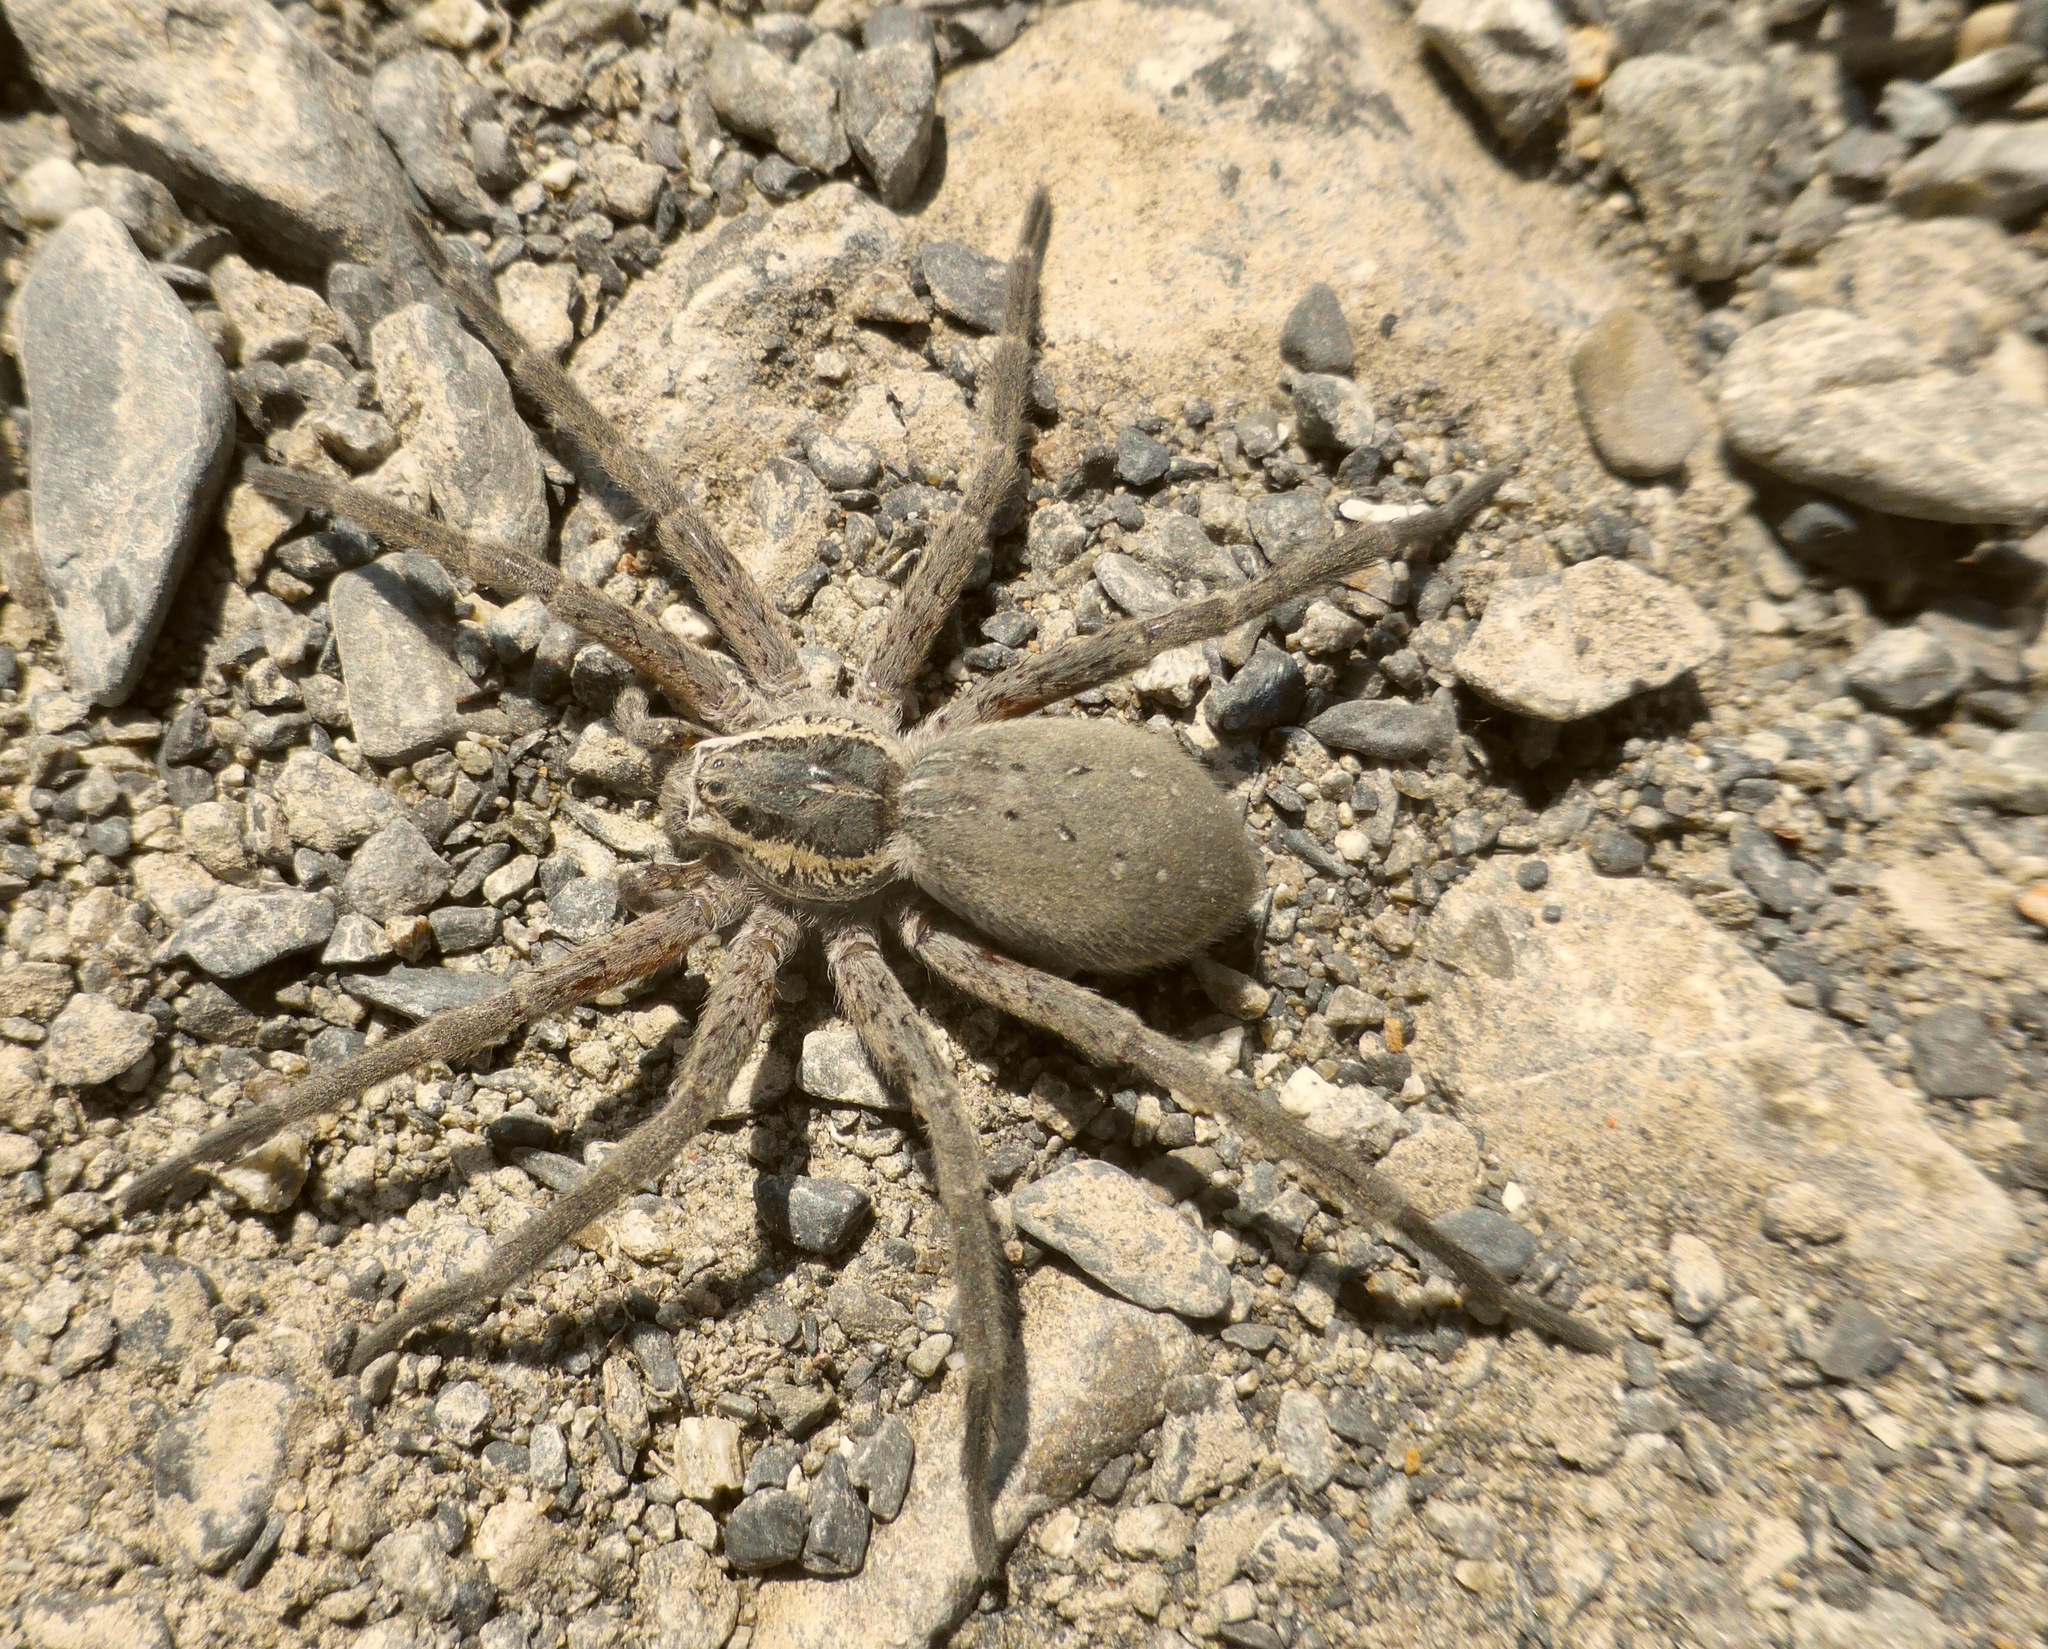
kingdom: Animalia
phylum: Arthropoda
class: Arachnida
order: Araneae
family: Pisauridae
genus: Dolomedes
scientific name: Dolomedes aquaticus
